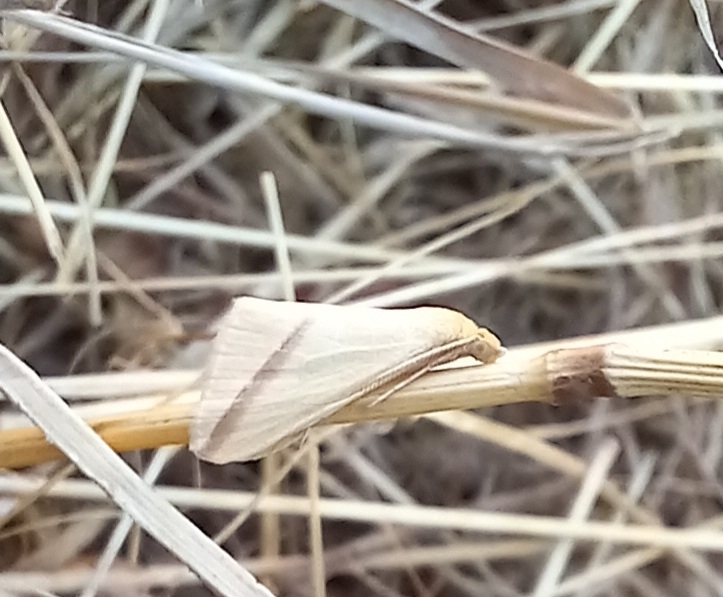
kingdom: Animalia
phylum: Arthropoda
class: Insecta
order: Lepidoptera
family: Geometridae
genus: Rhodometra
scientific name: Rhodometra sacraria
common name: Vestal
